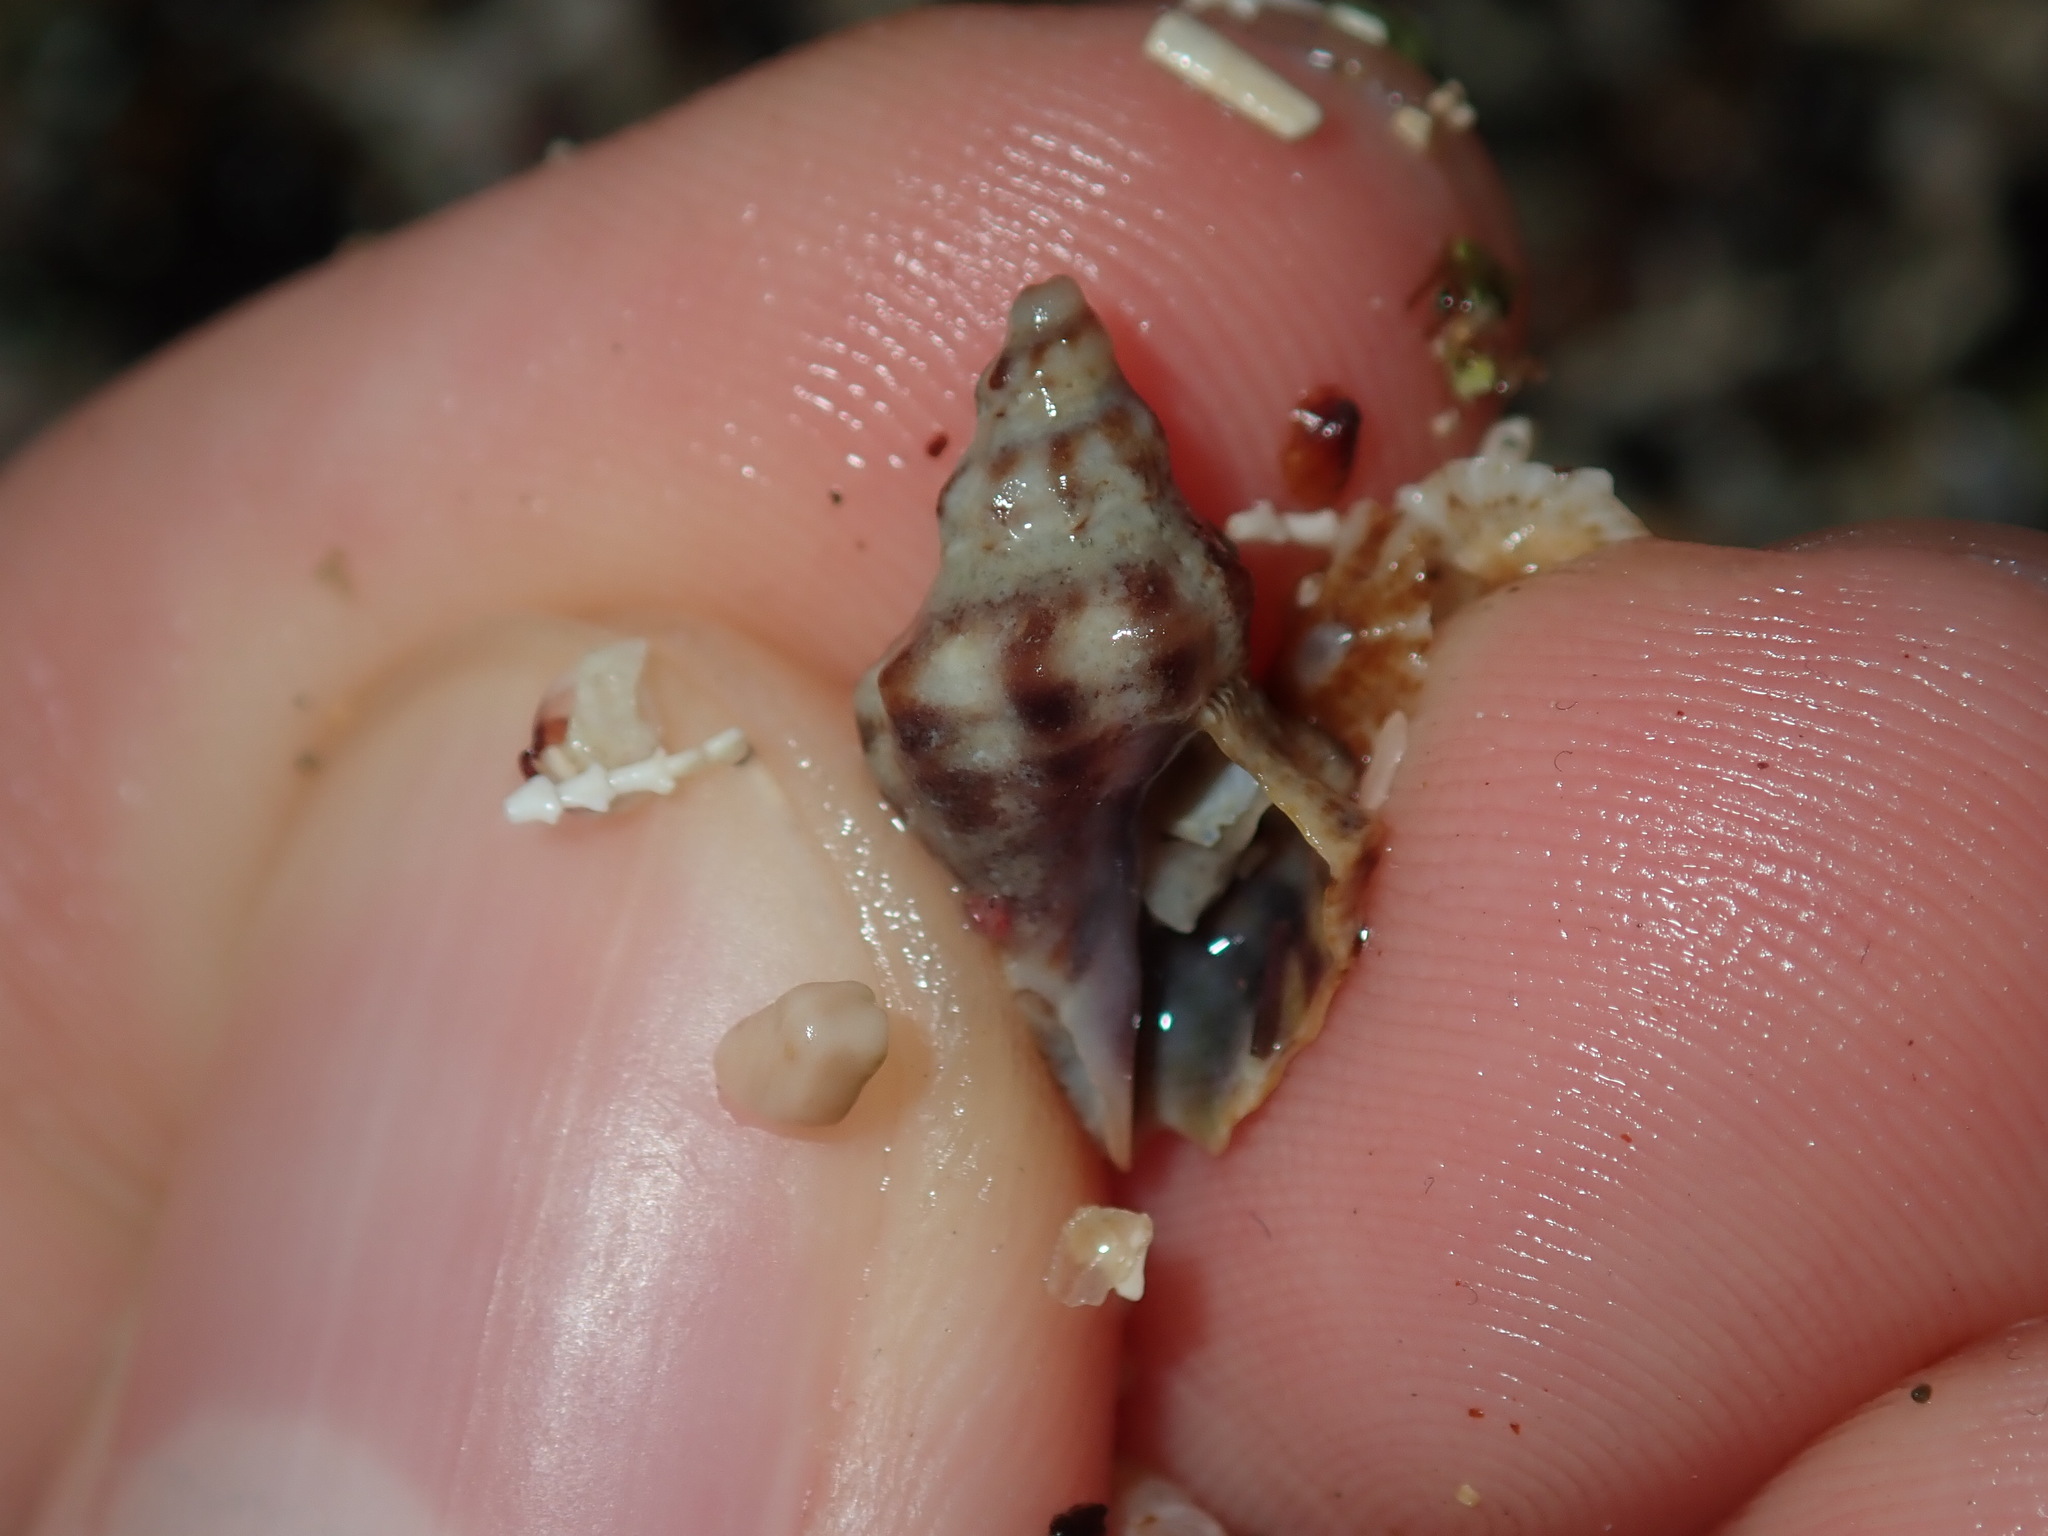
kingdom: Animalia
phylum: Mollusca
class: Gastropoda
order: Neogastropoda
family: Muricidae
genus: Phycothais
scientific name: Phycothais reticulata
